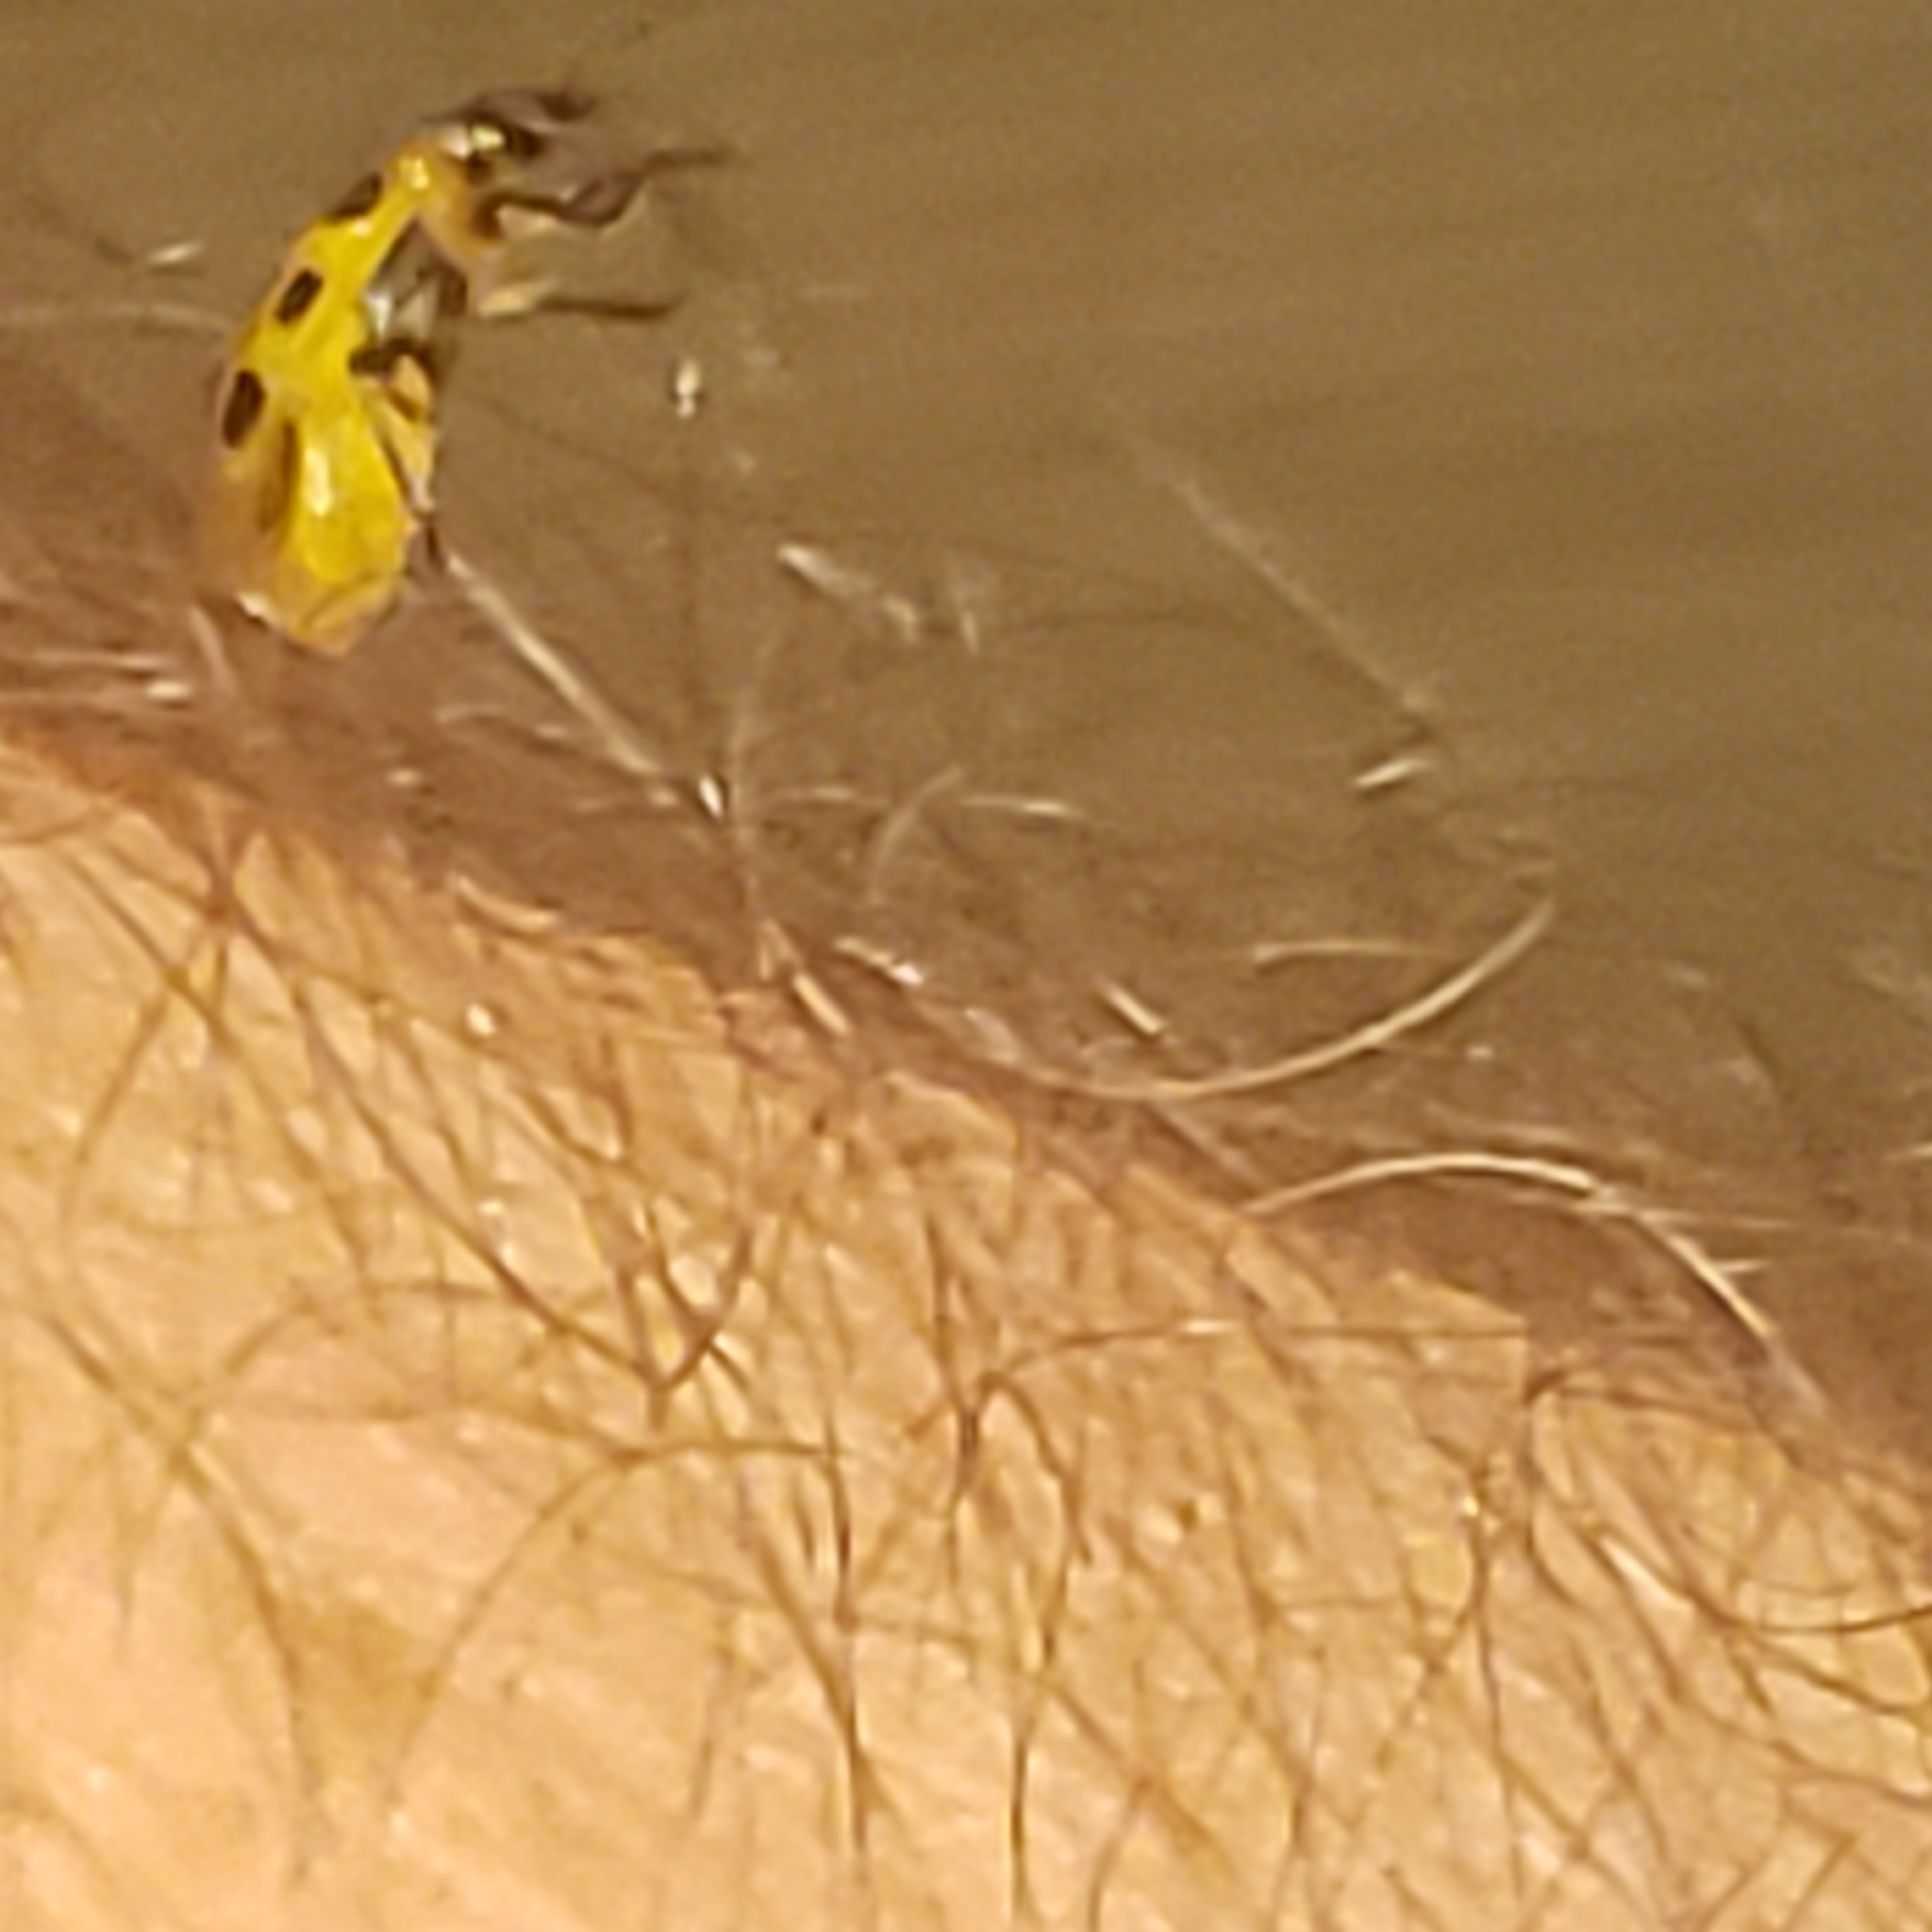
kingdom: Animalia
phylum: Arthropoda
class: Insecta
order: Coleoptera
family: Chrysomelidae
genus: Diabrotica
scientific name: Diabrotica undecimpunctata
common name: Spotted cucumber beetle
